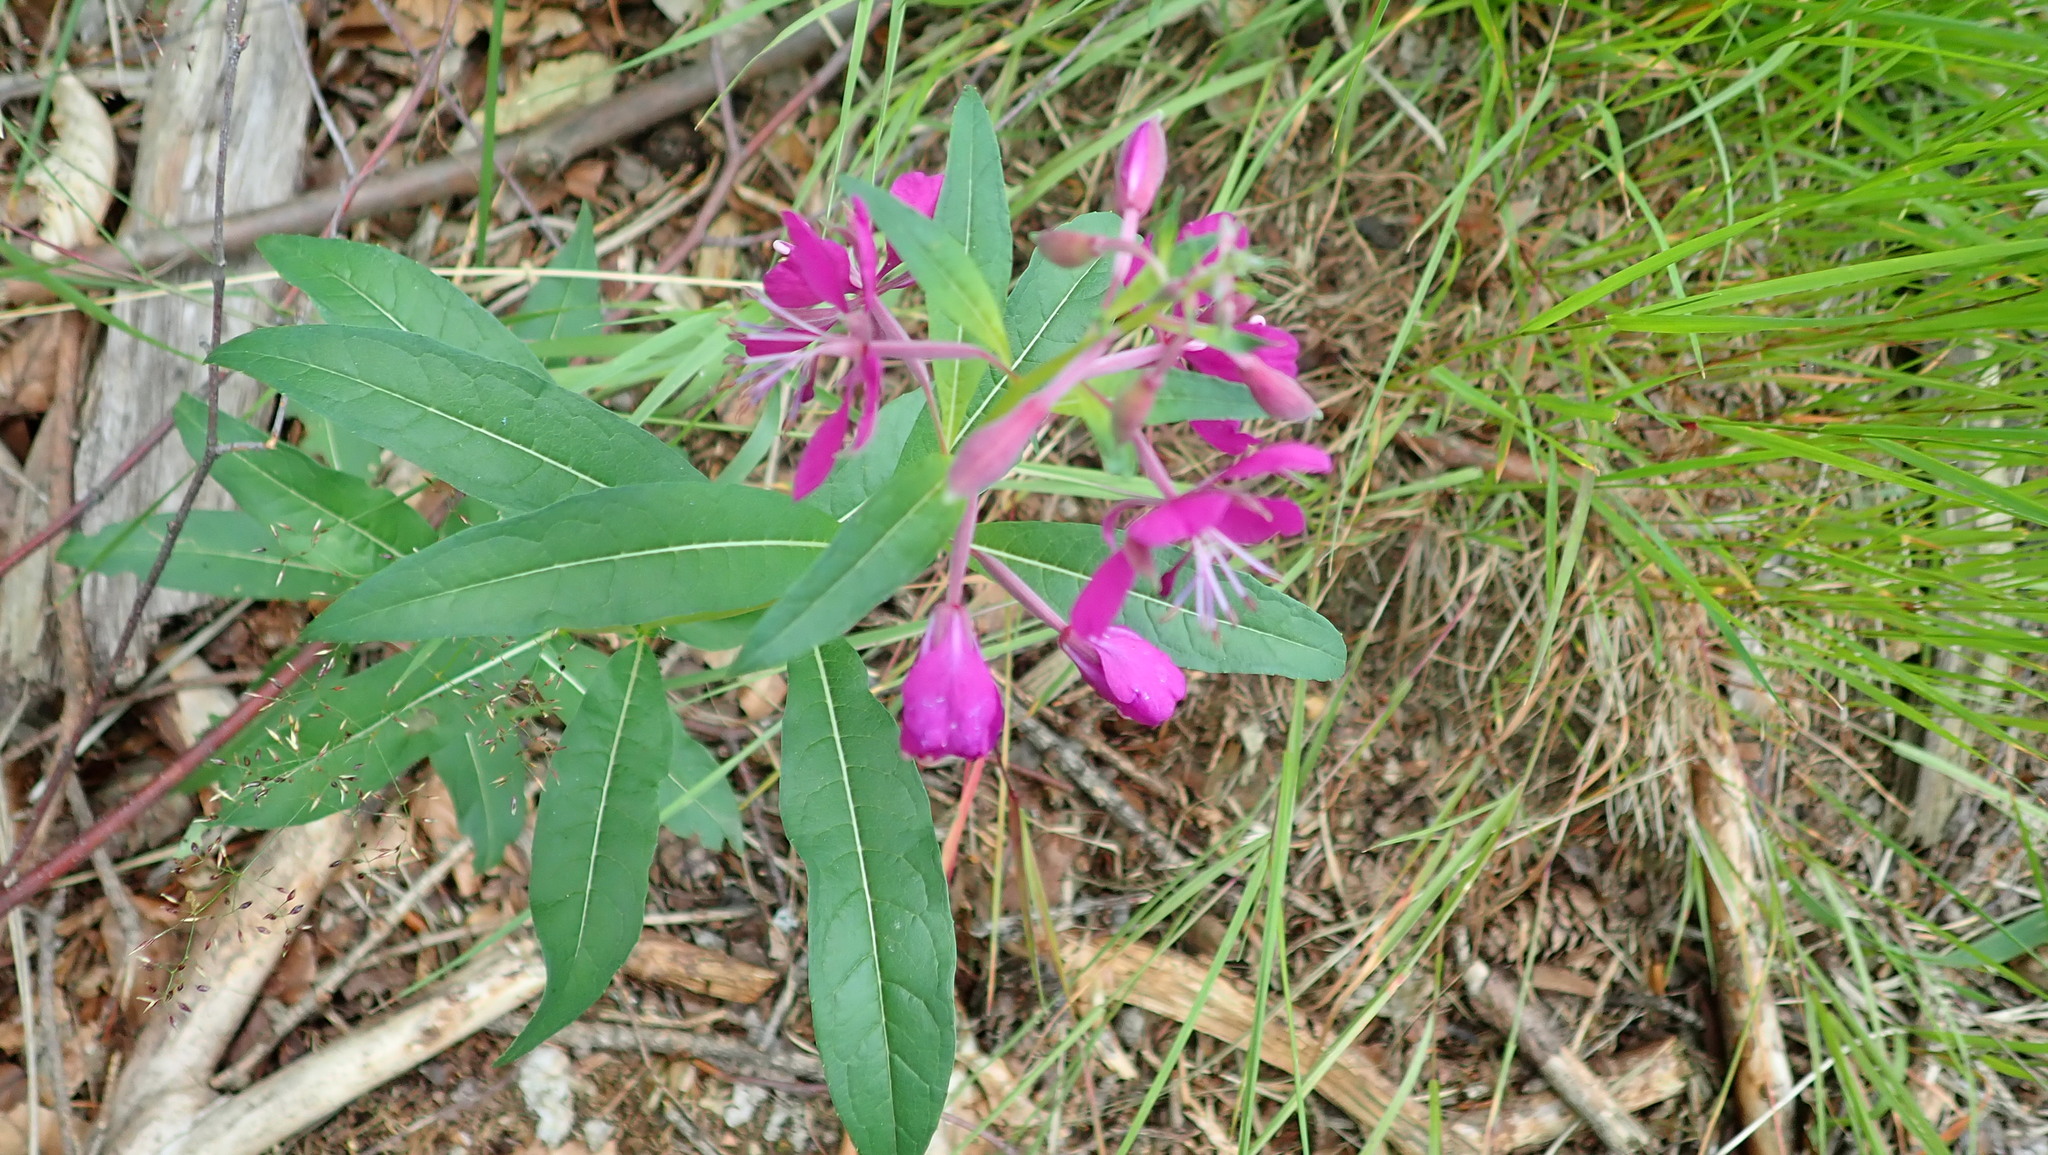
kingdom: Plantae
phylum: Tracheophyta
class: Magnoliopsida
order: Myrtales
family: Onagraceae
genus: Chamaenerion
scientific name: Chamaenerion angustifolium
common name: Fireweed
